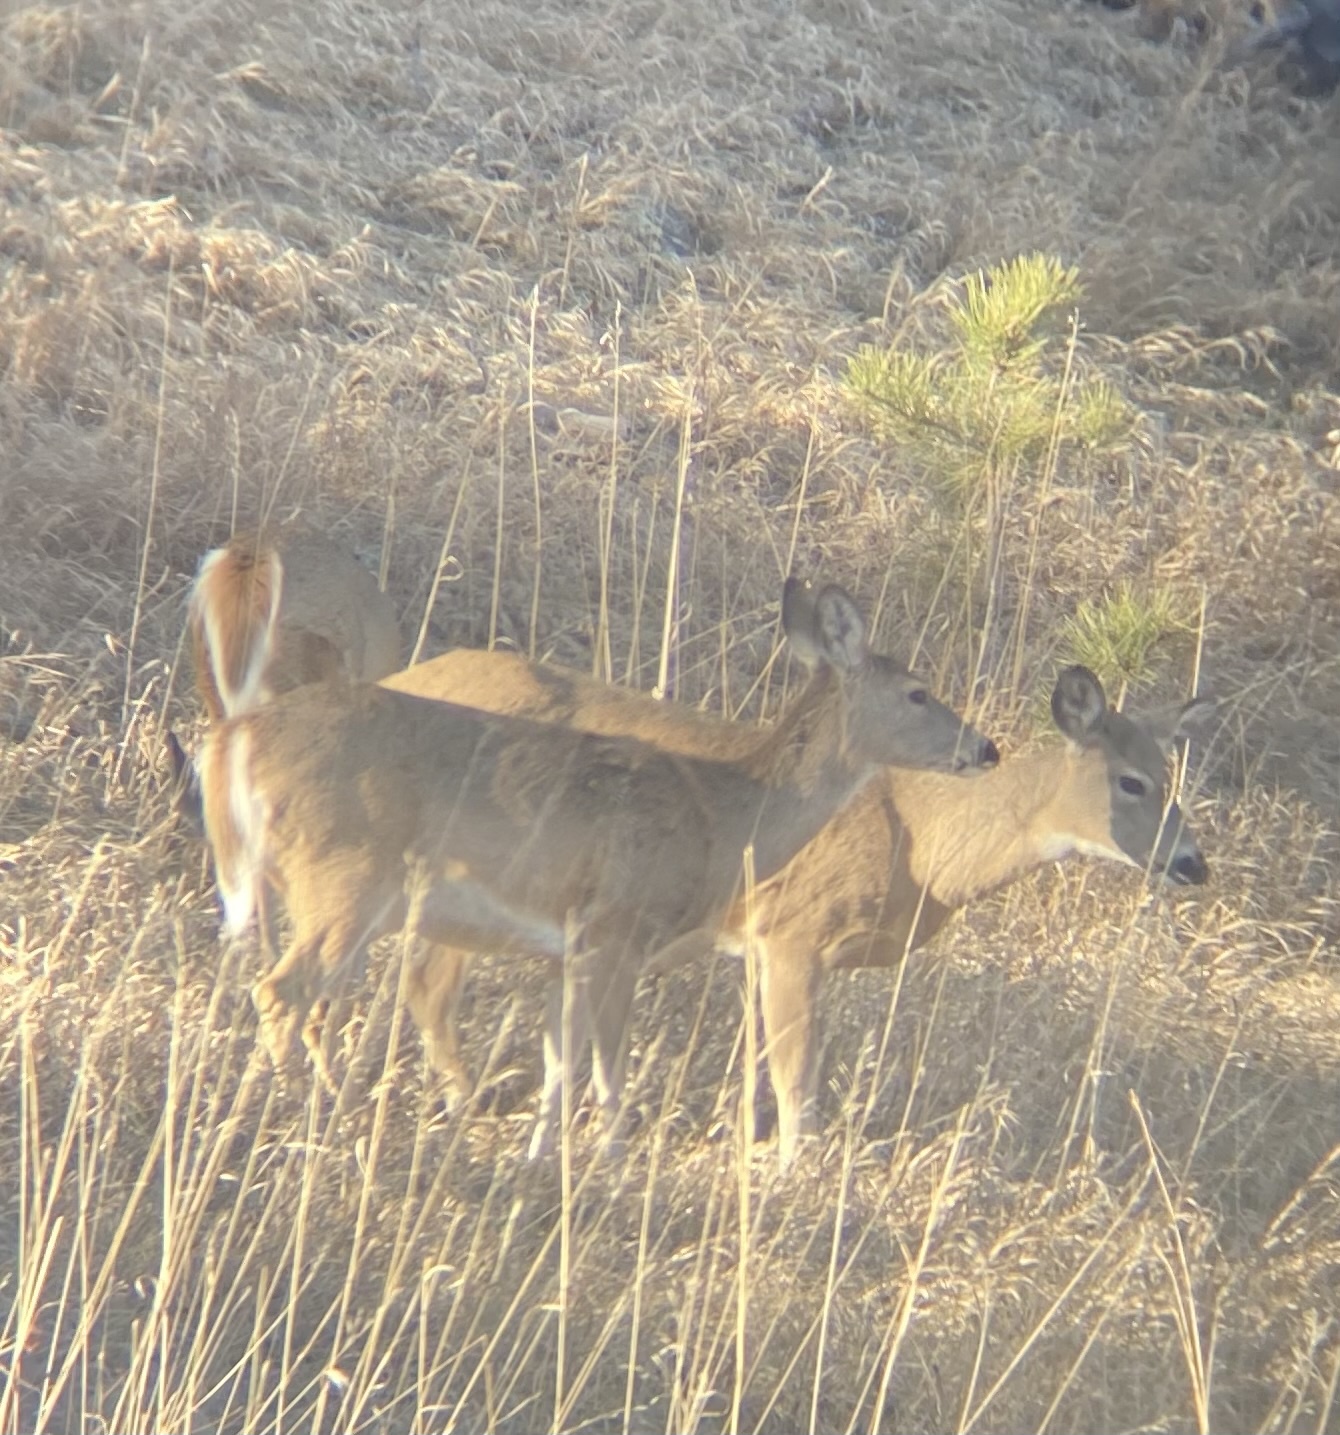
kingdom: Animalia
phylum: Chordata
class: Mammalia
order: Artiodactyla
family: Cervidae
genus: Odocoileus
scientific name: Odocoileus virginianus
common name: White-tailed deer
